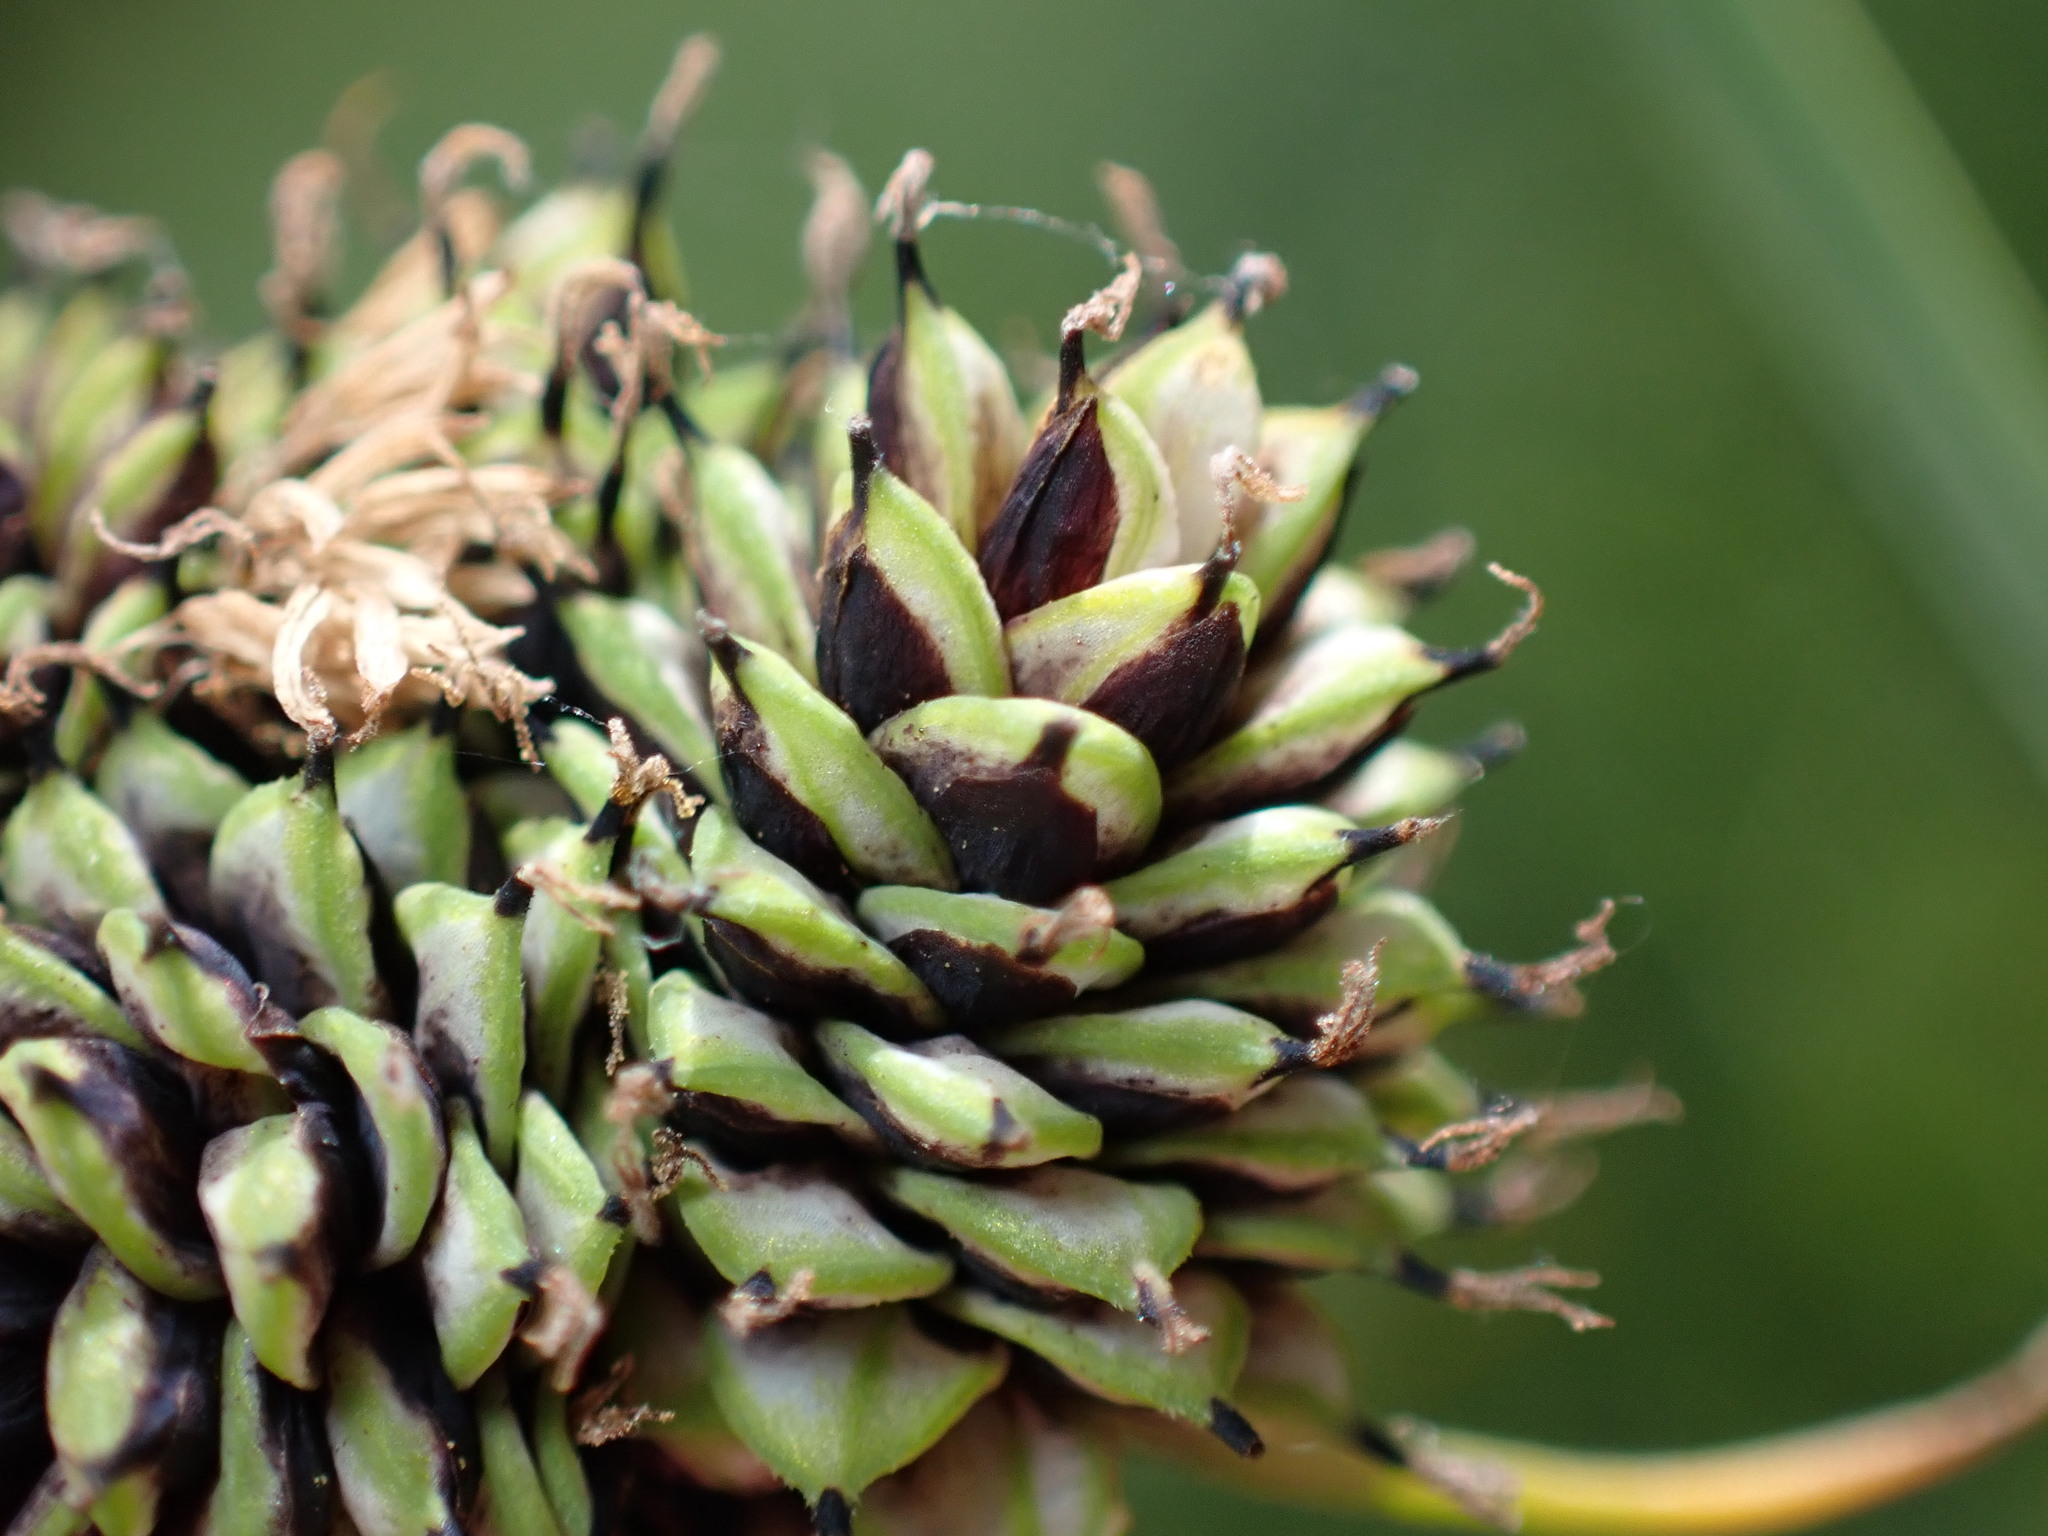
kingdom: Plantae
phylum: Tracheophyta
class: Liliopsida
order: Poales
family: Cyperaceae
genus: Carex
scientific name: Carex nova
